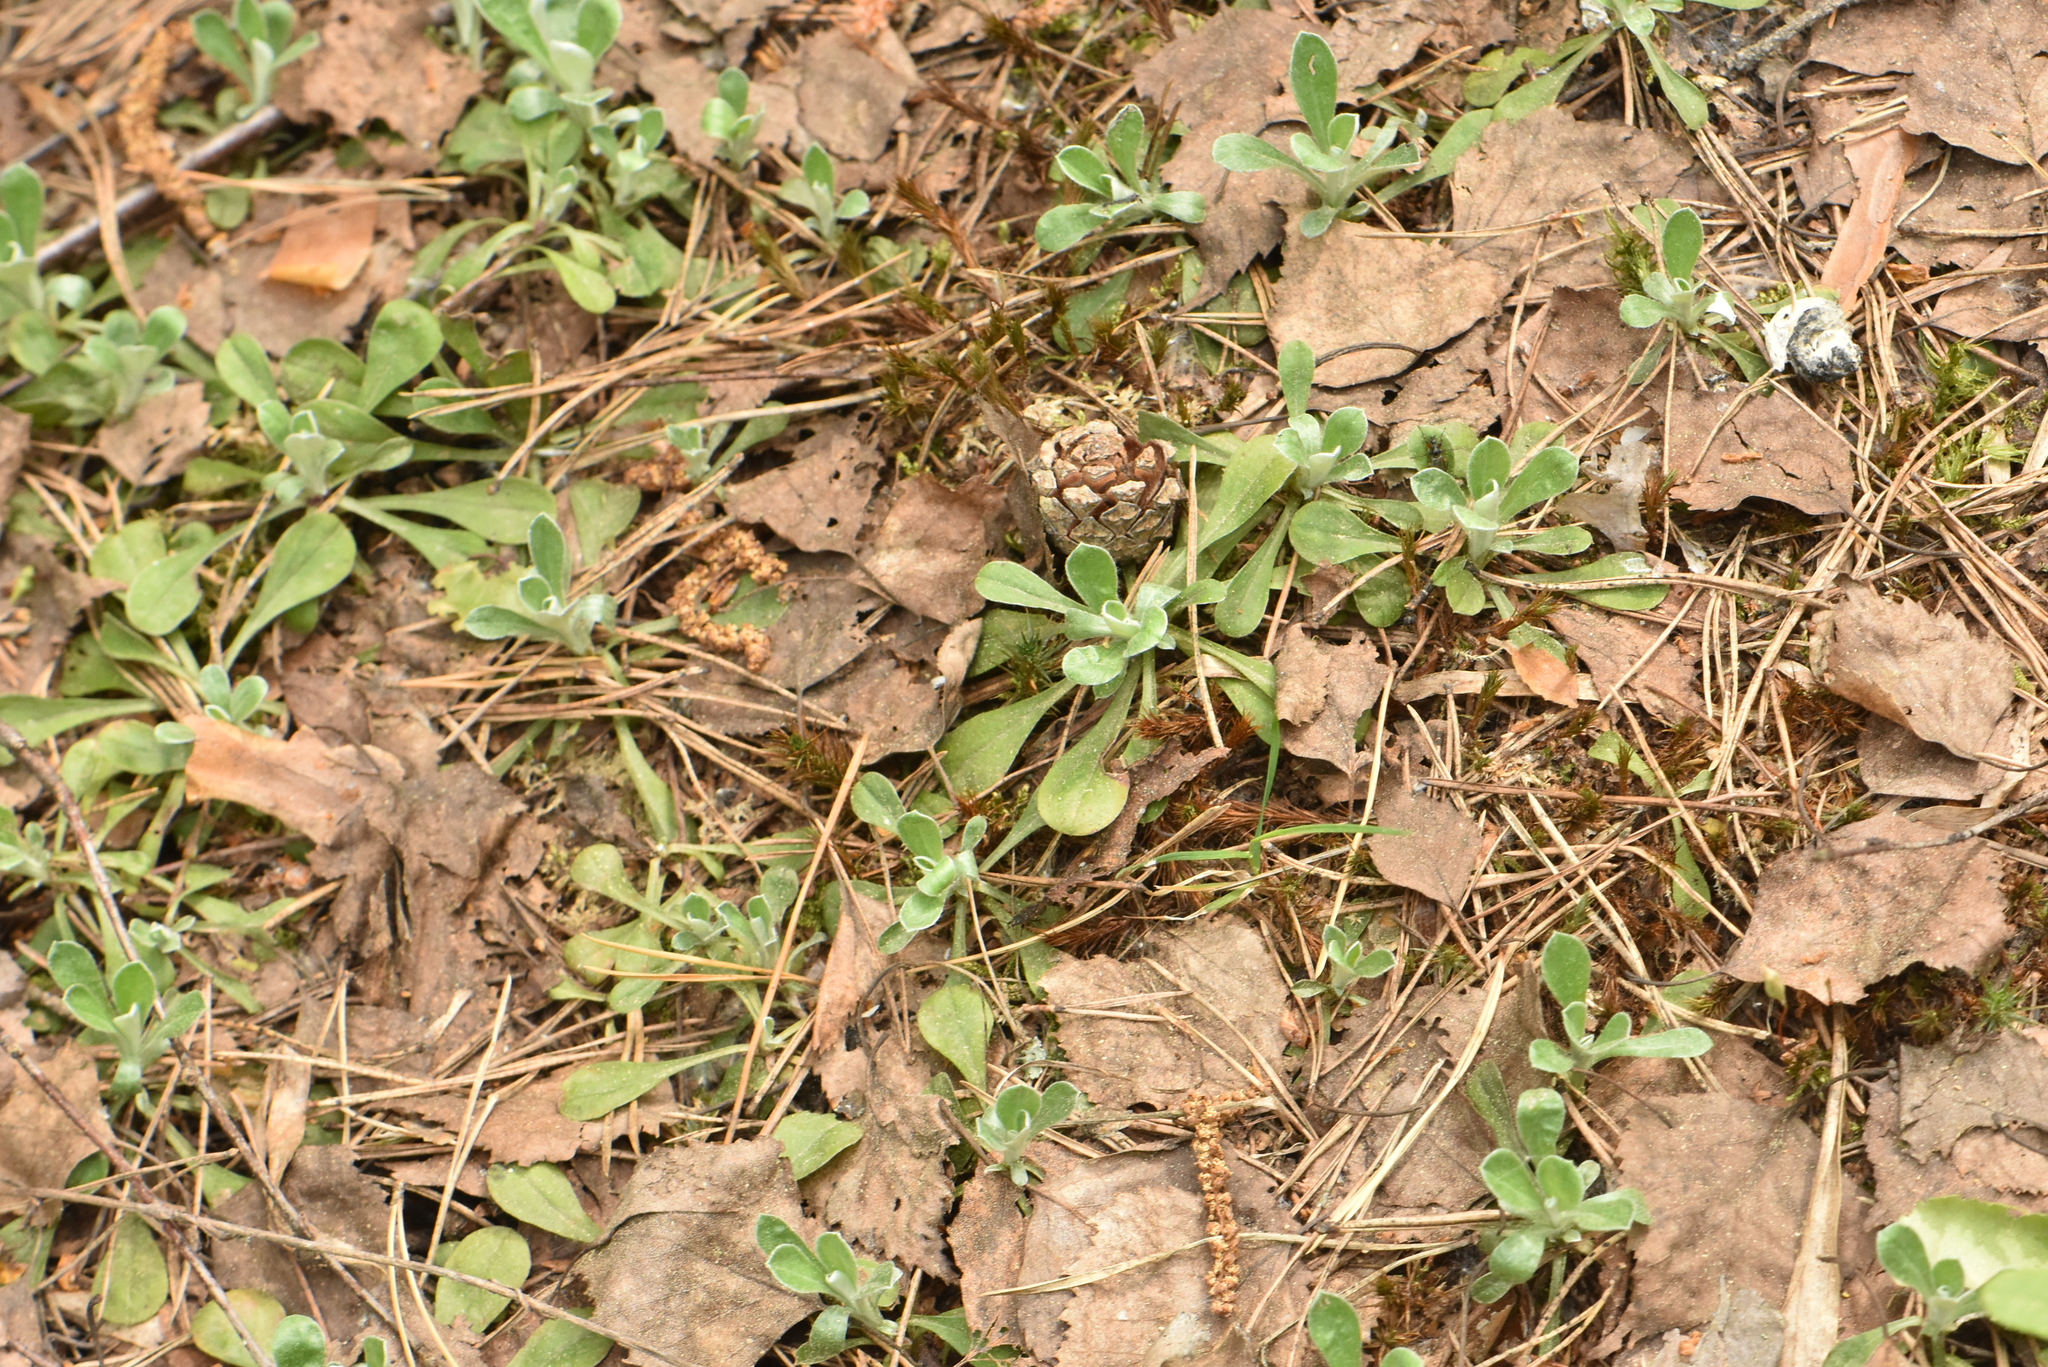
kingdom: Plantae
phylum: Tracheophyta
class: Magnoliopsida
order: Asterales
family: Asteraceae
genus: Antennaria
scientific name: Antennaria dioica
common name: Mountain everlasting
